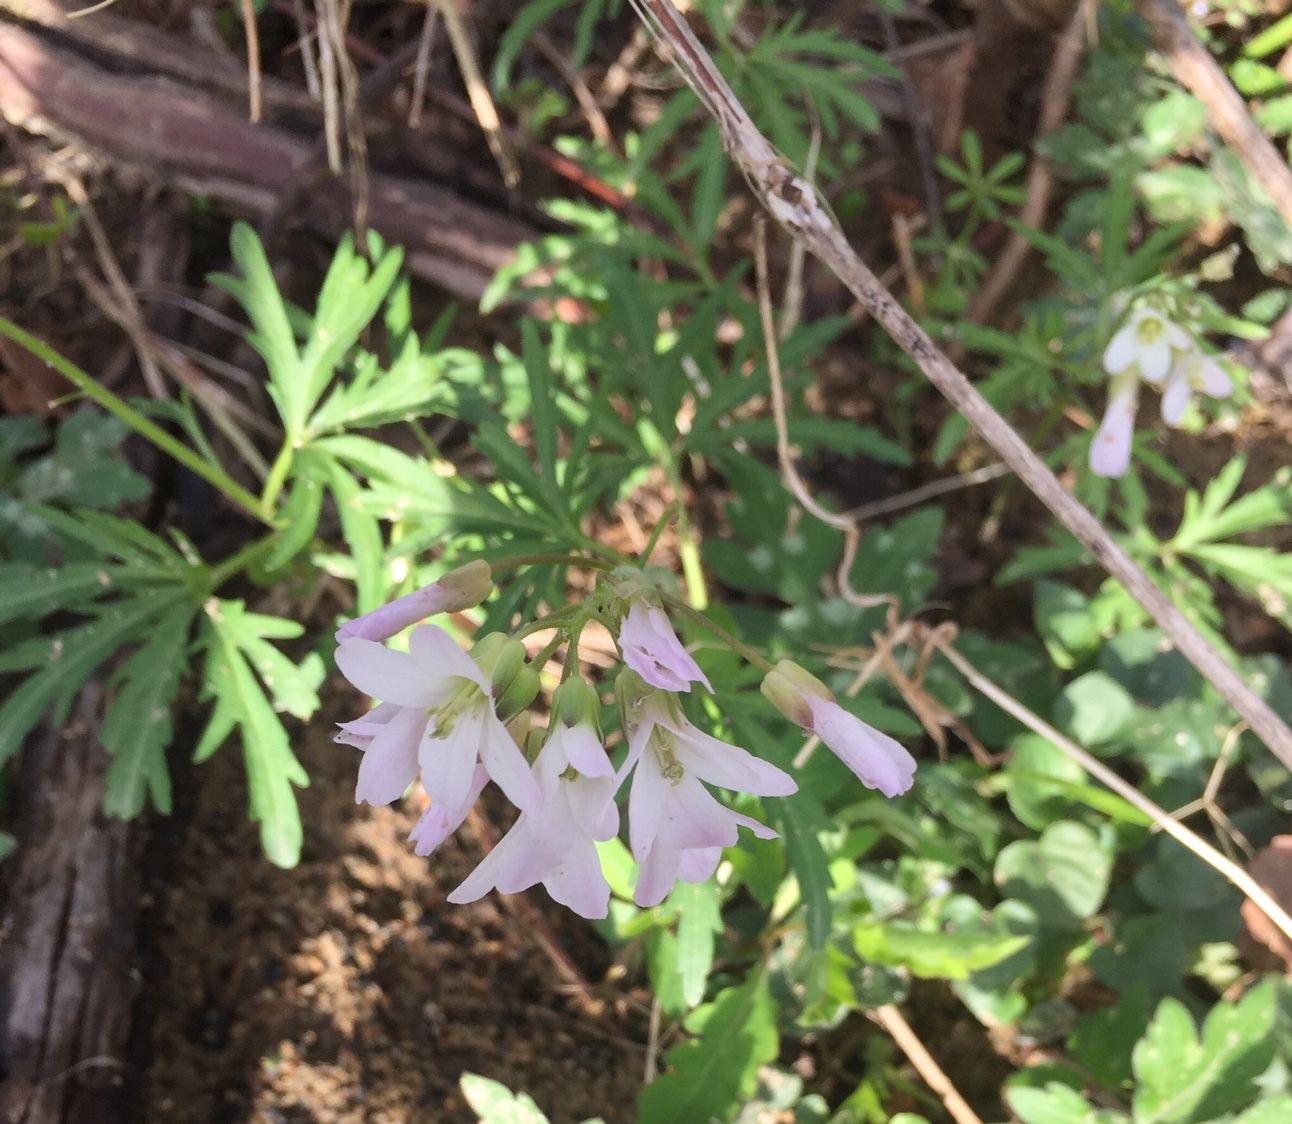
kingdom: Plantae
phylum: Tracheophyta
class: Magnoliopsida
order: Brassicales
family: Brassicaceae
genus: Cardamine
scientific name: Cardamine concatenata
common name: Cut-leaf toothcup
